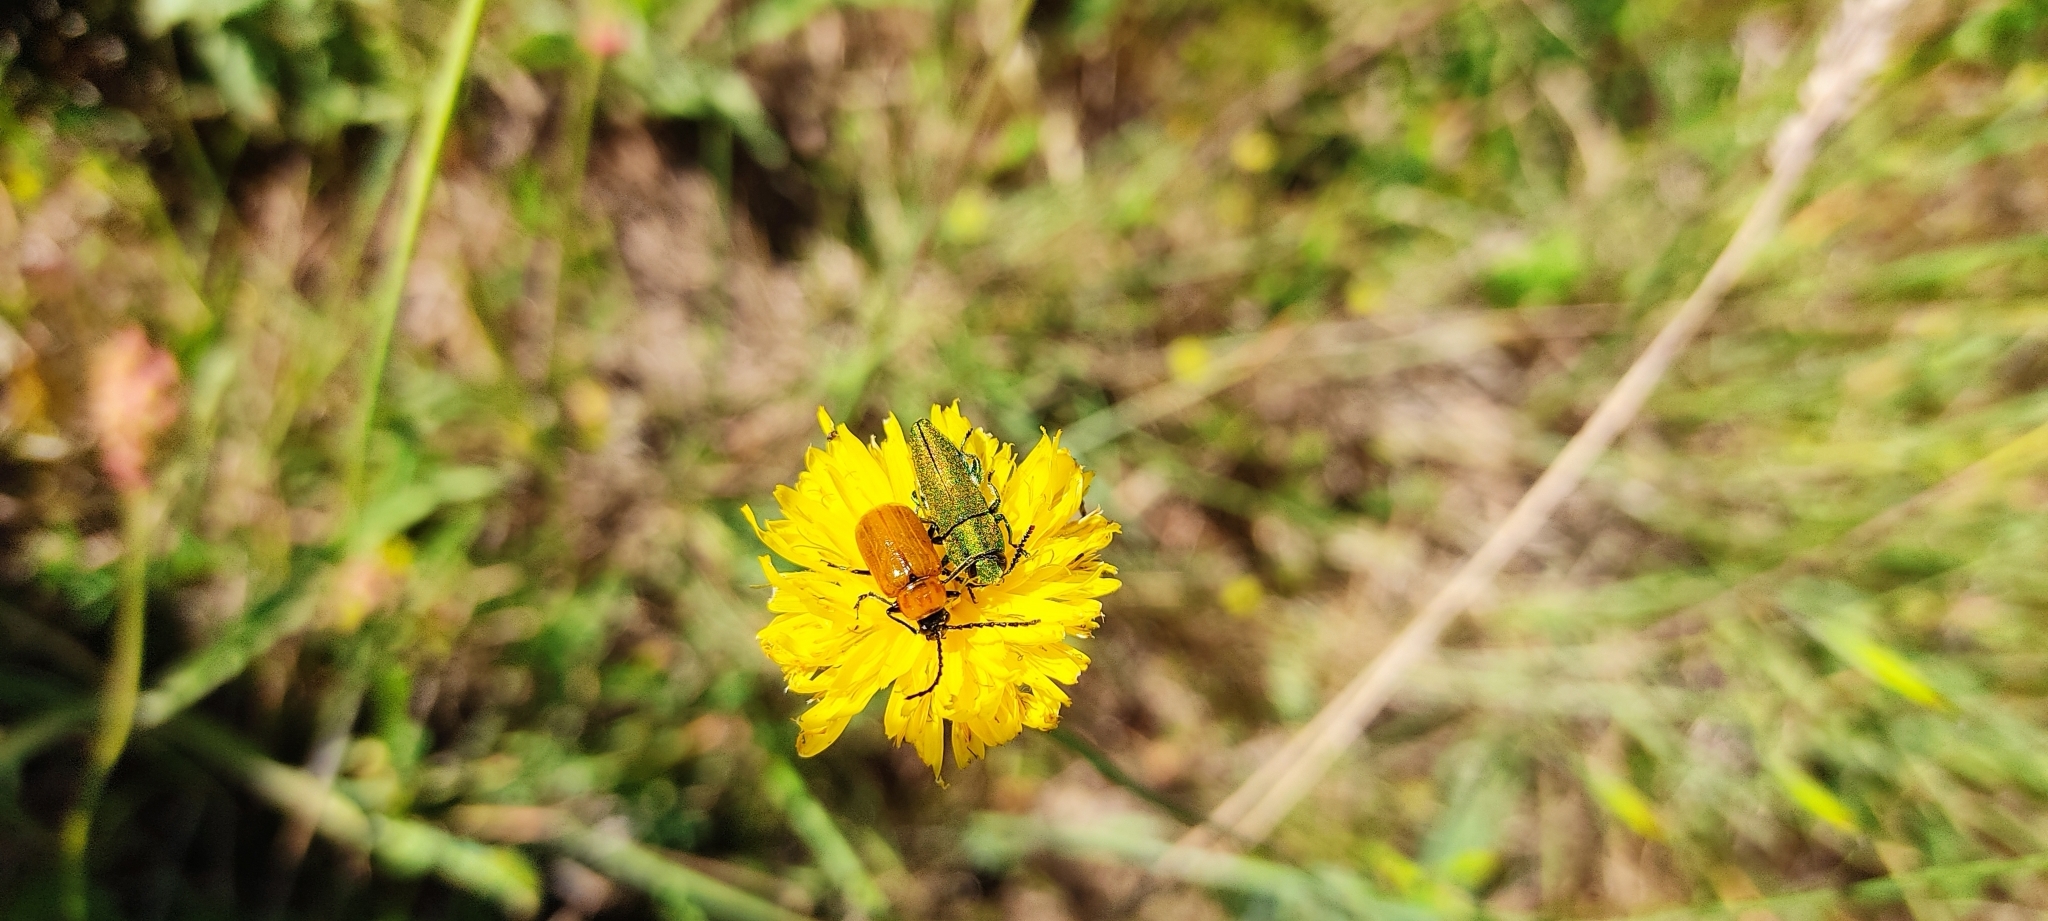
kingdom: Animalia
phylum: Arthropoda
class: Insecta
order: Coleoptera
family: Chrysomelidae
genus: Exosoma
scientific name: Exosoma lusitanicum
